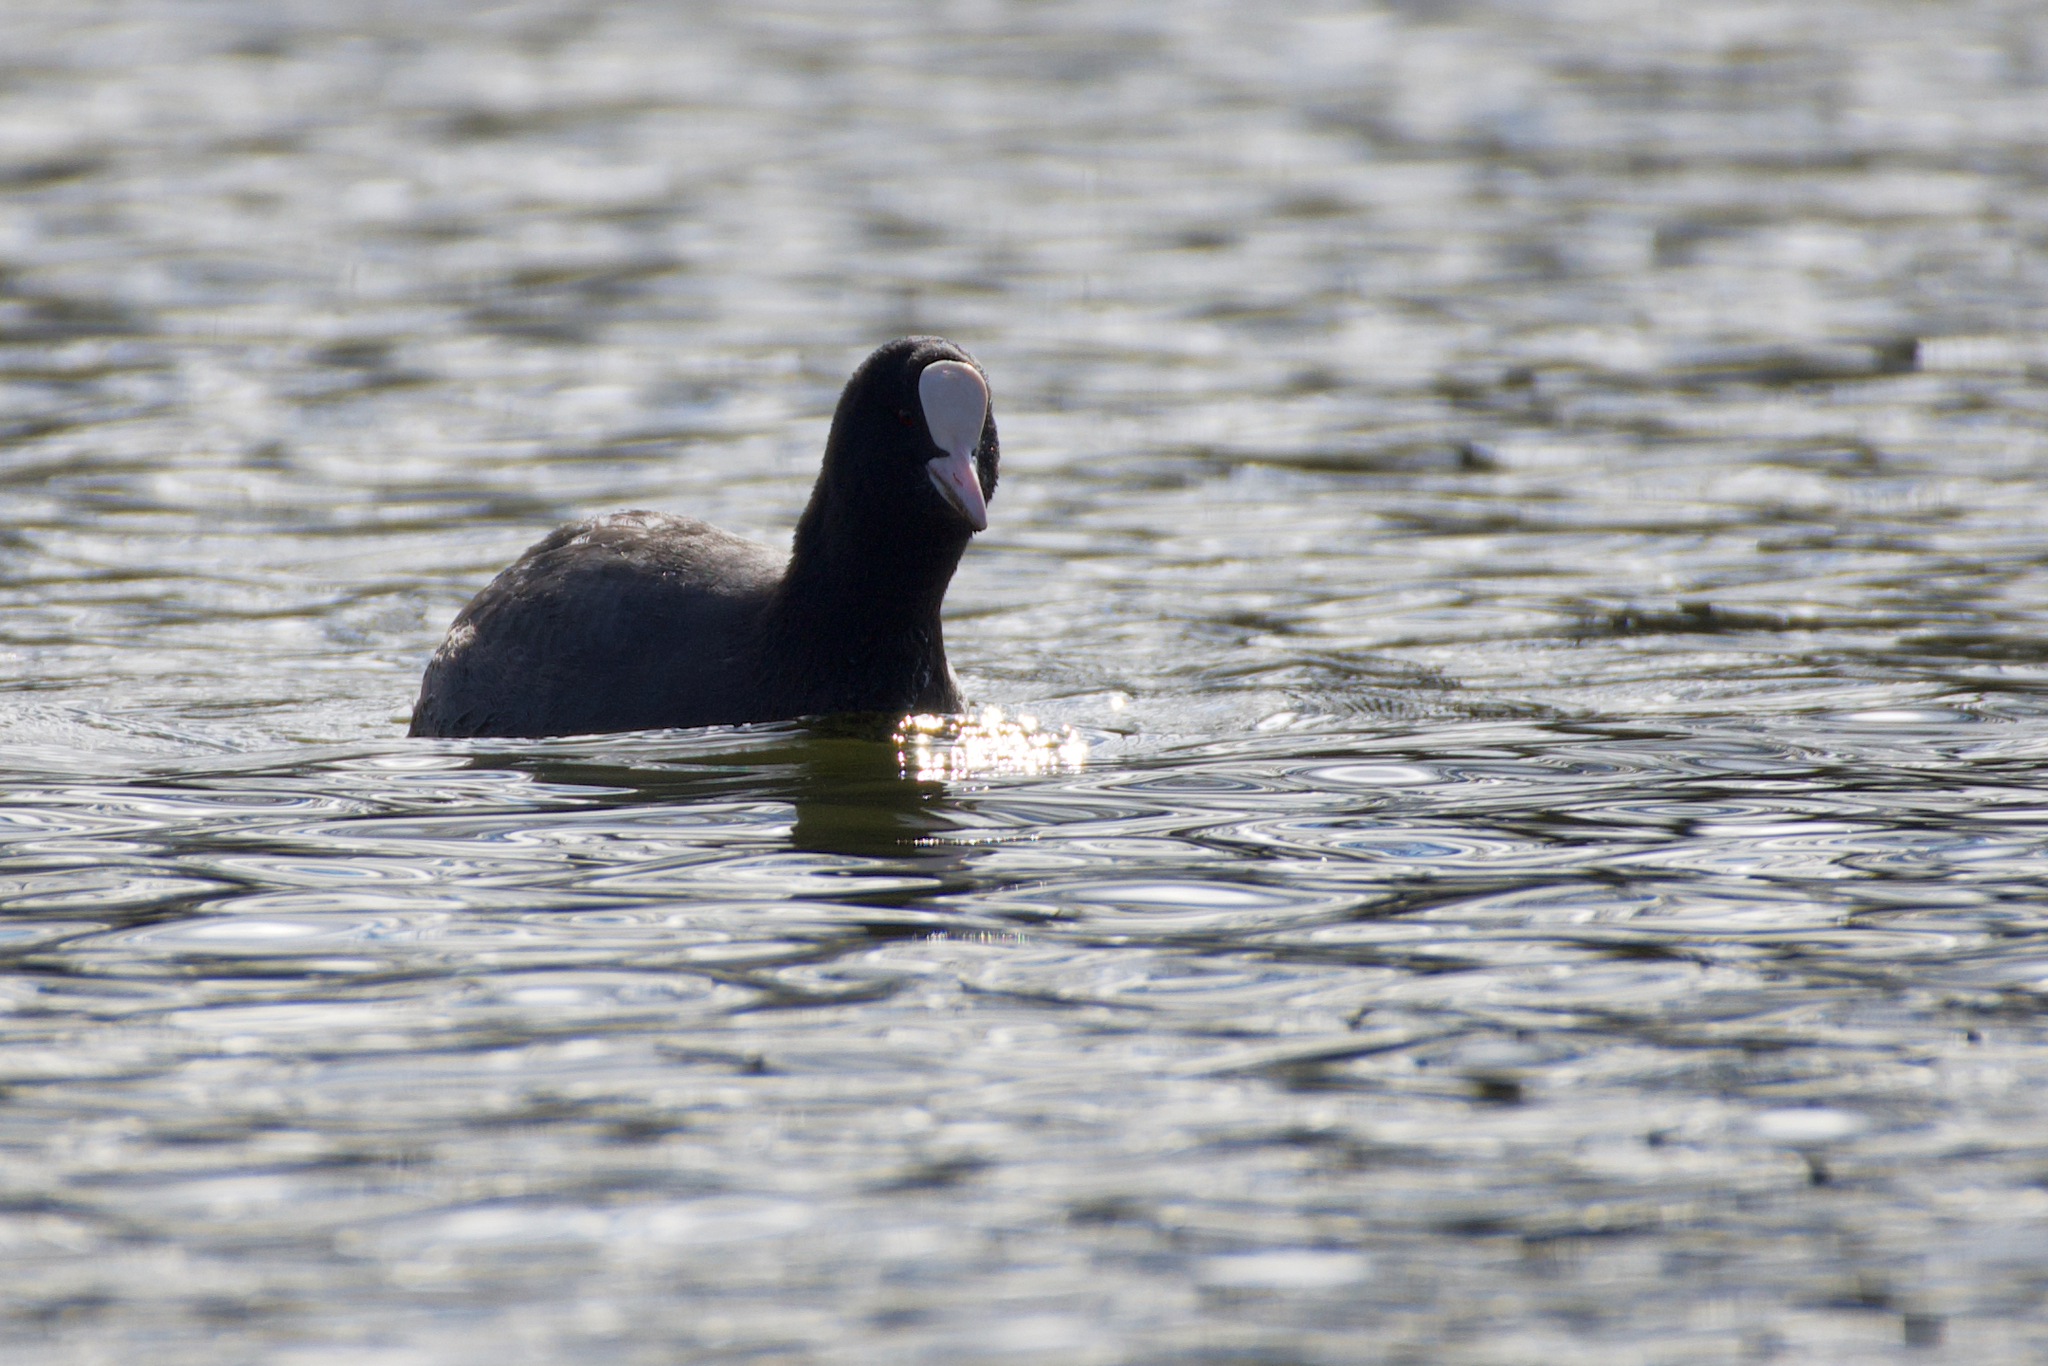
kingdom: Animalia
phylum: Chordata
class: Aves
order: Gruiformes
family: Rallidae
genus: Fulica
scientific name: Fulica atra
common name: Eurasian coot
